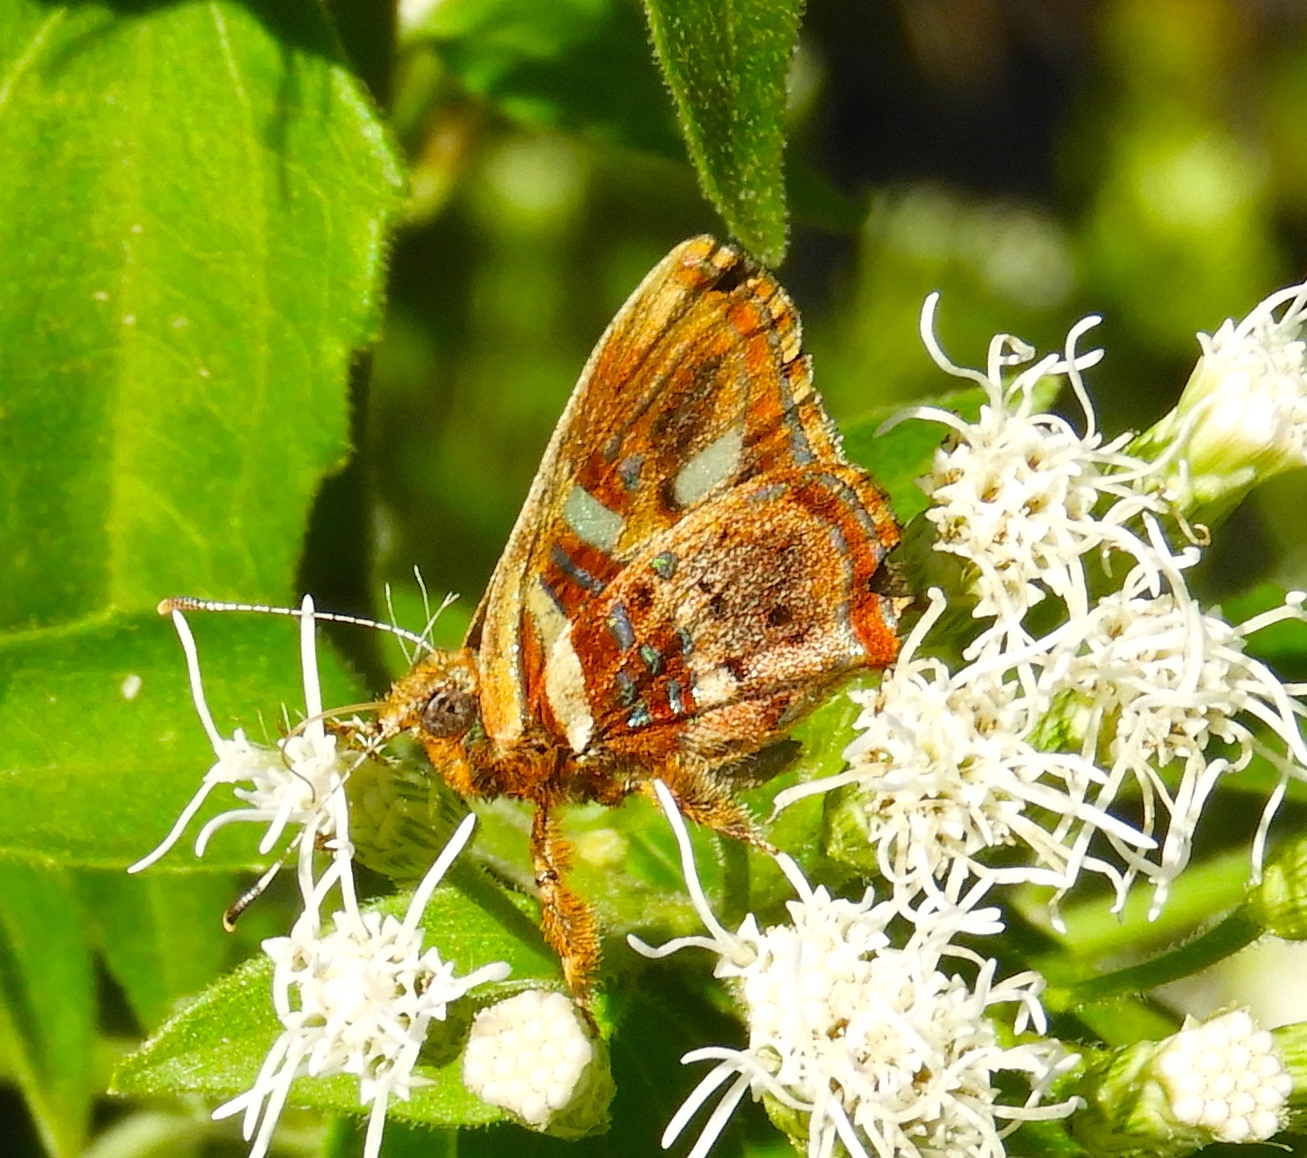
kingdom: Animalia
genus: Anteros
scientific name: Anteros carausius
